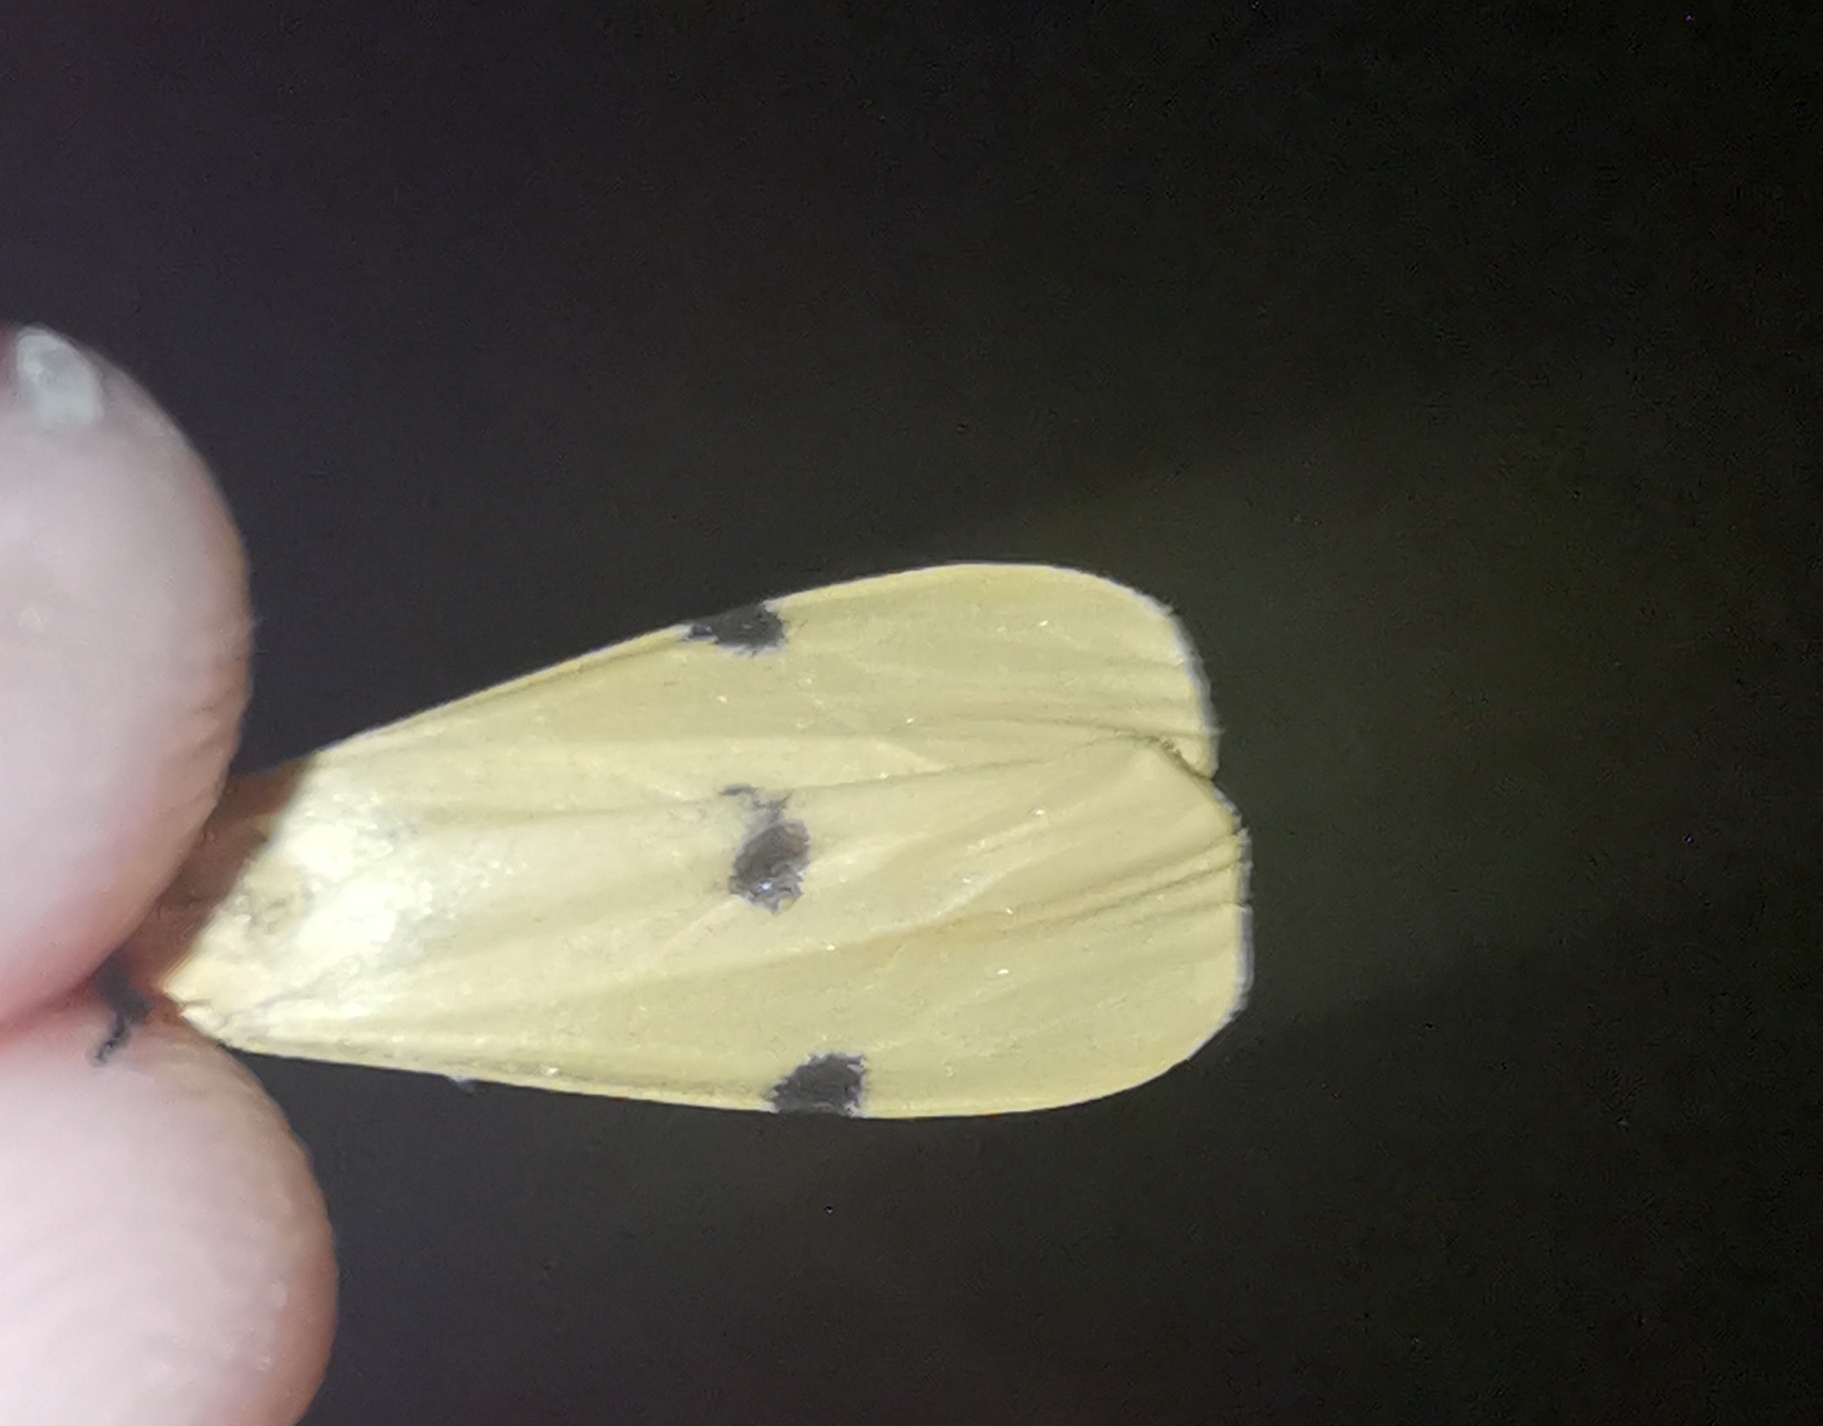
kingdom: Animalia
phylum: Arthropoda
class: Insecta
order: Lepidoptera
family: Erebidae
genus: Lithosia
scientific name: Lithosia quadra
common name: Four-spotted footman
